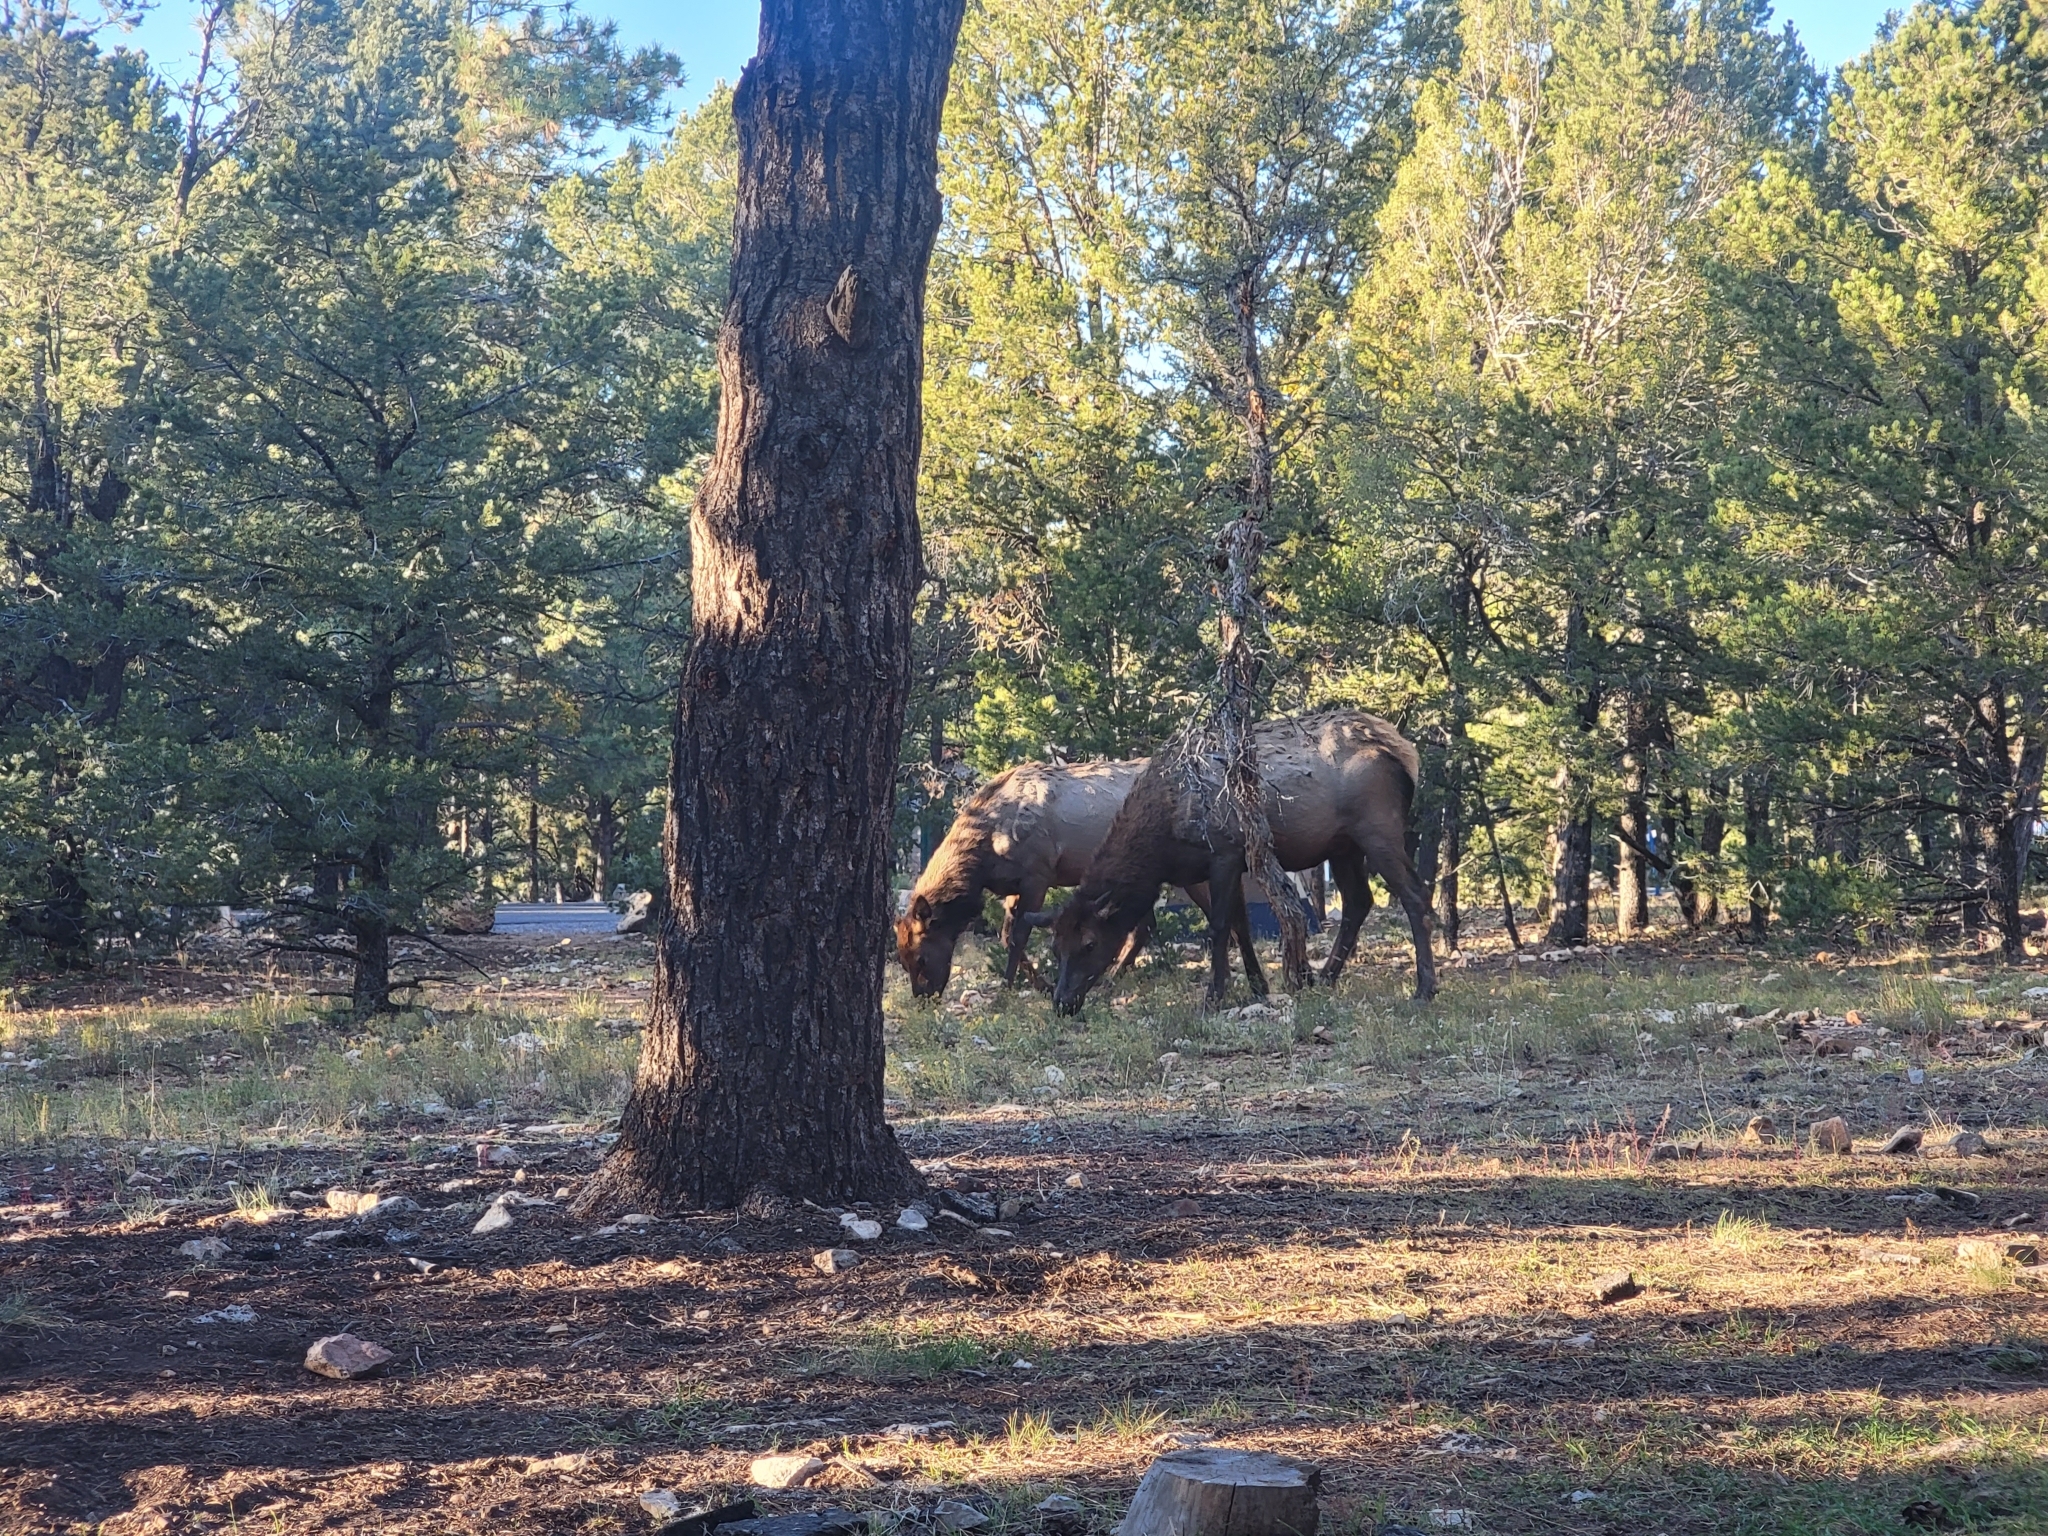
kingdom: Animalia
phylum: Chordata
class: Mammalia
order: Artiodactyla
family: Cervidae
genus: Cervus
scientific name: Cervus elaphus
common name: Red deer
